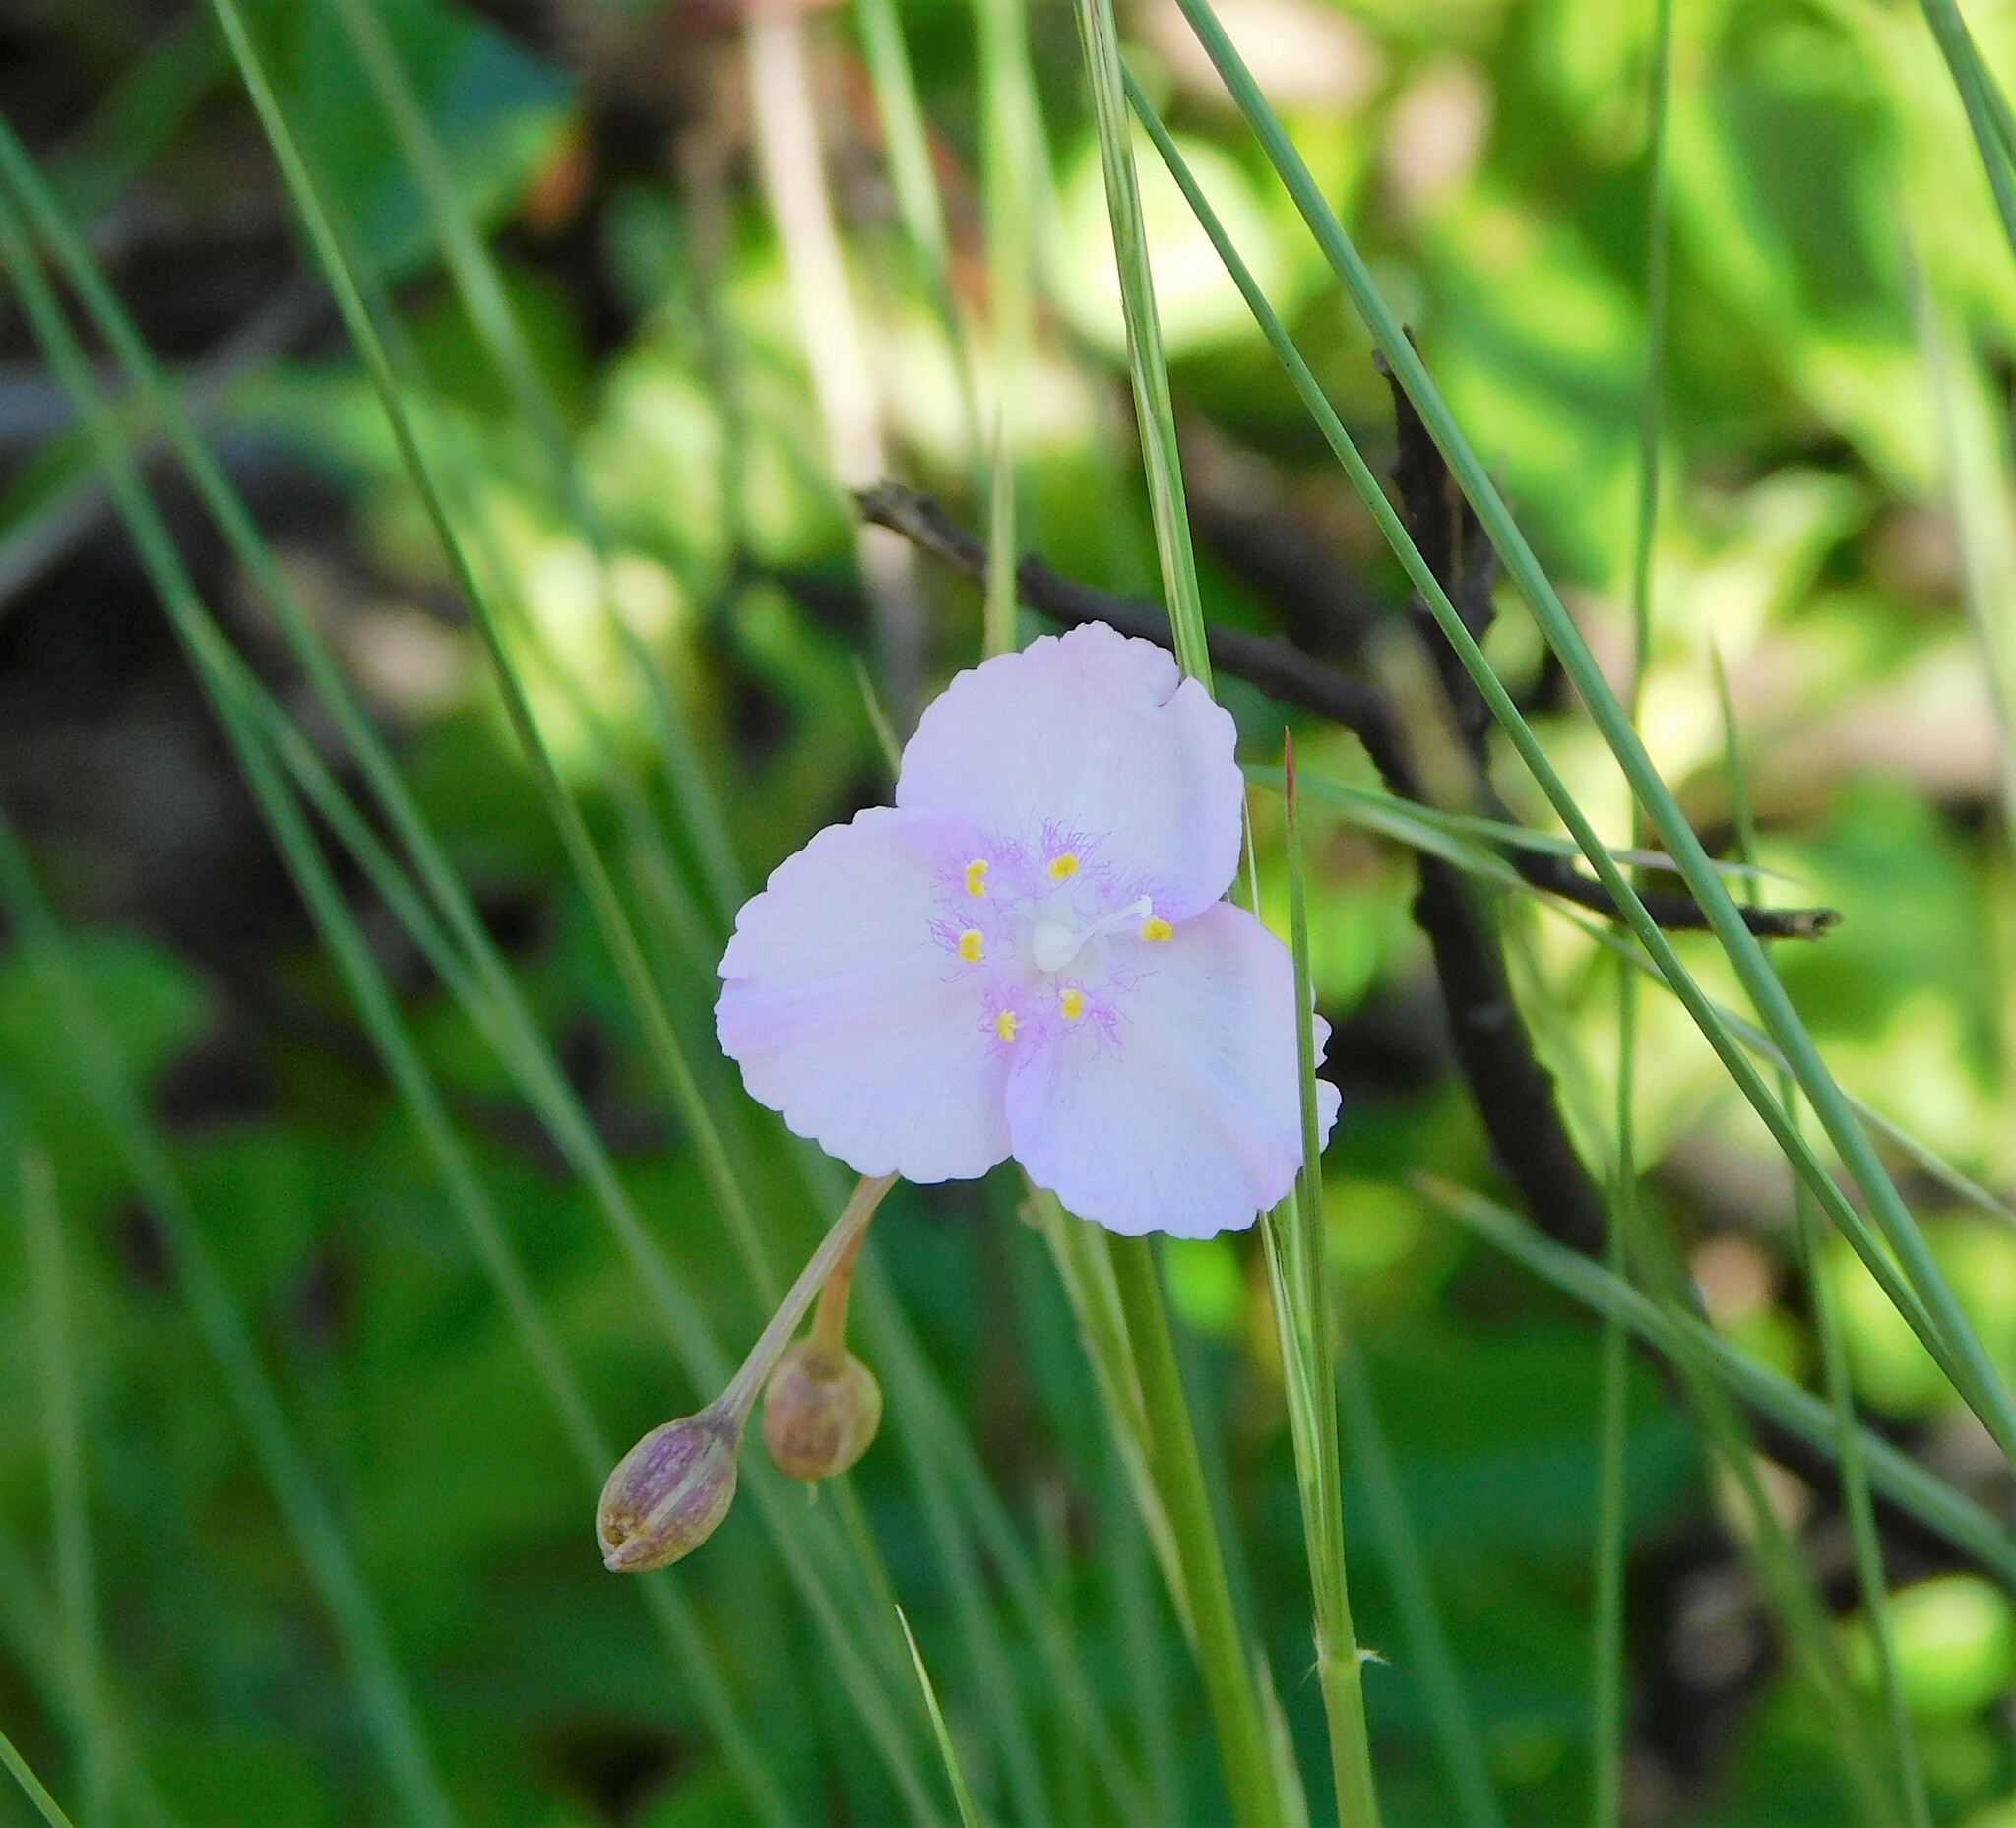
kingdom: Plantae
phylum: Tracheophyta
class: Liliopsida
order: Commelinales
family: Commelinaceae
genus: Callisia
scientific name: Callisia ornata
